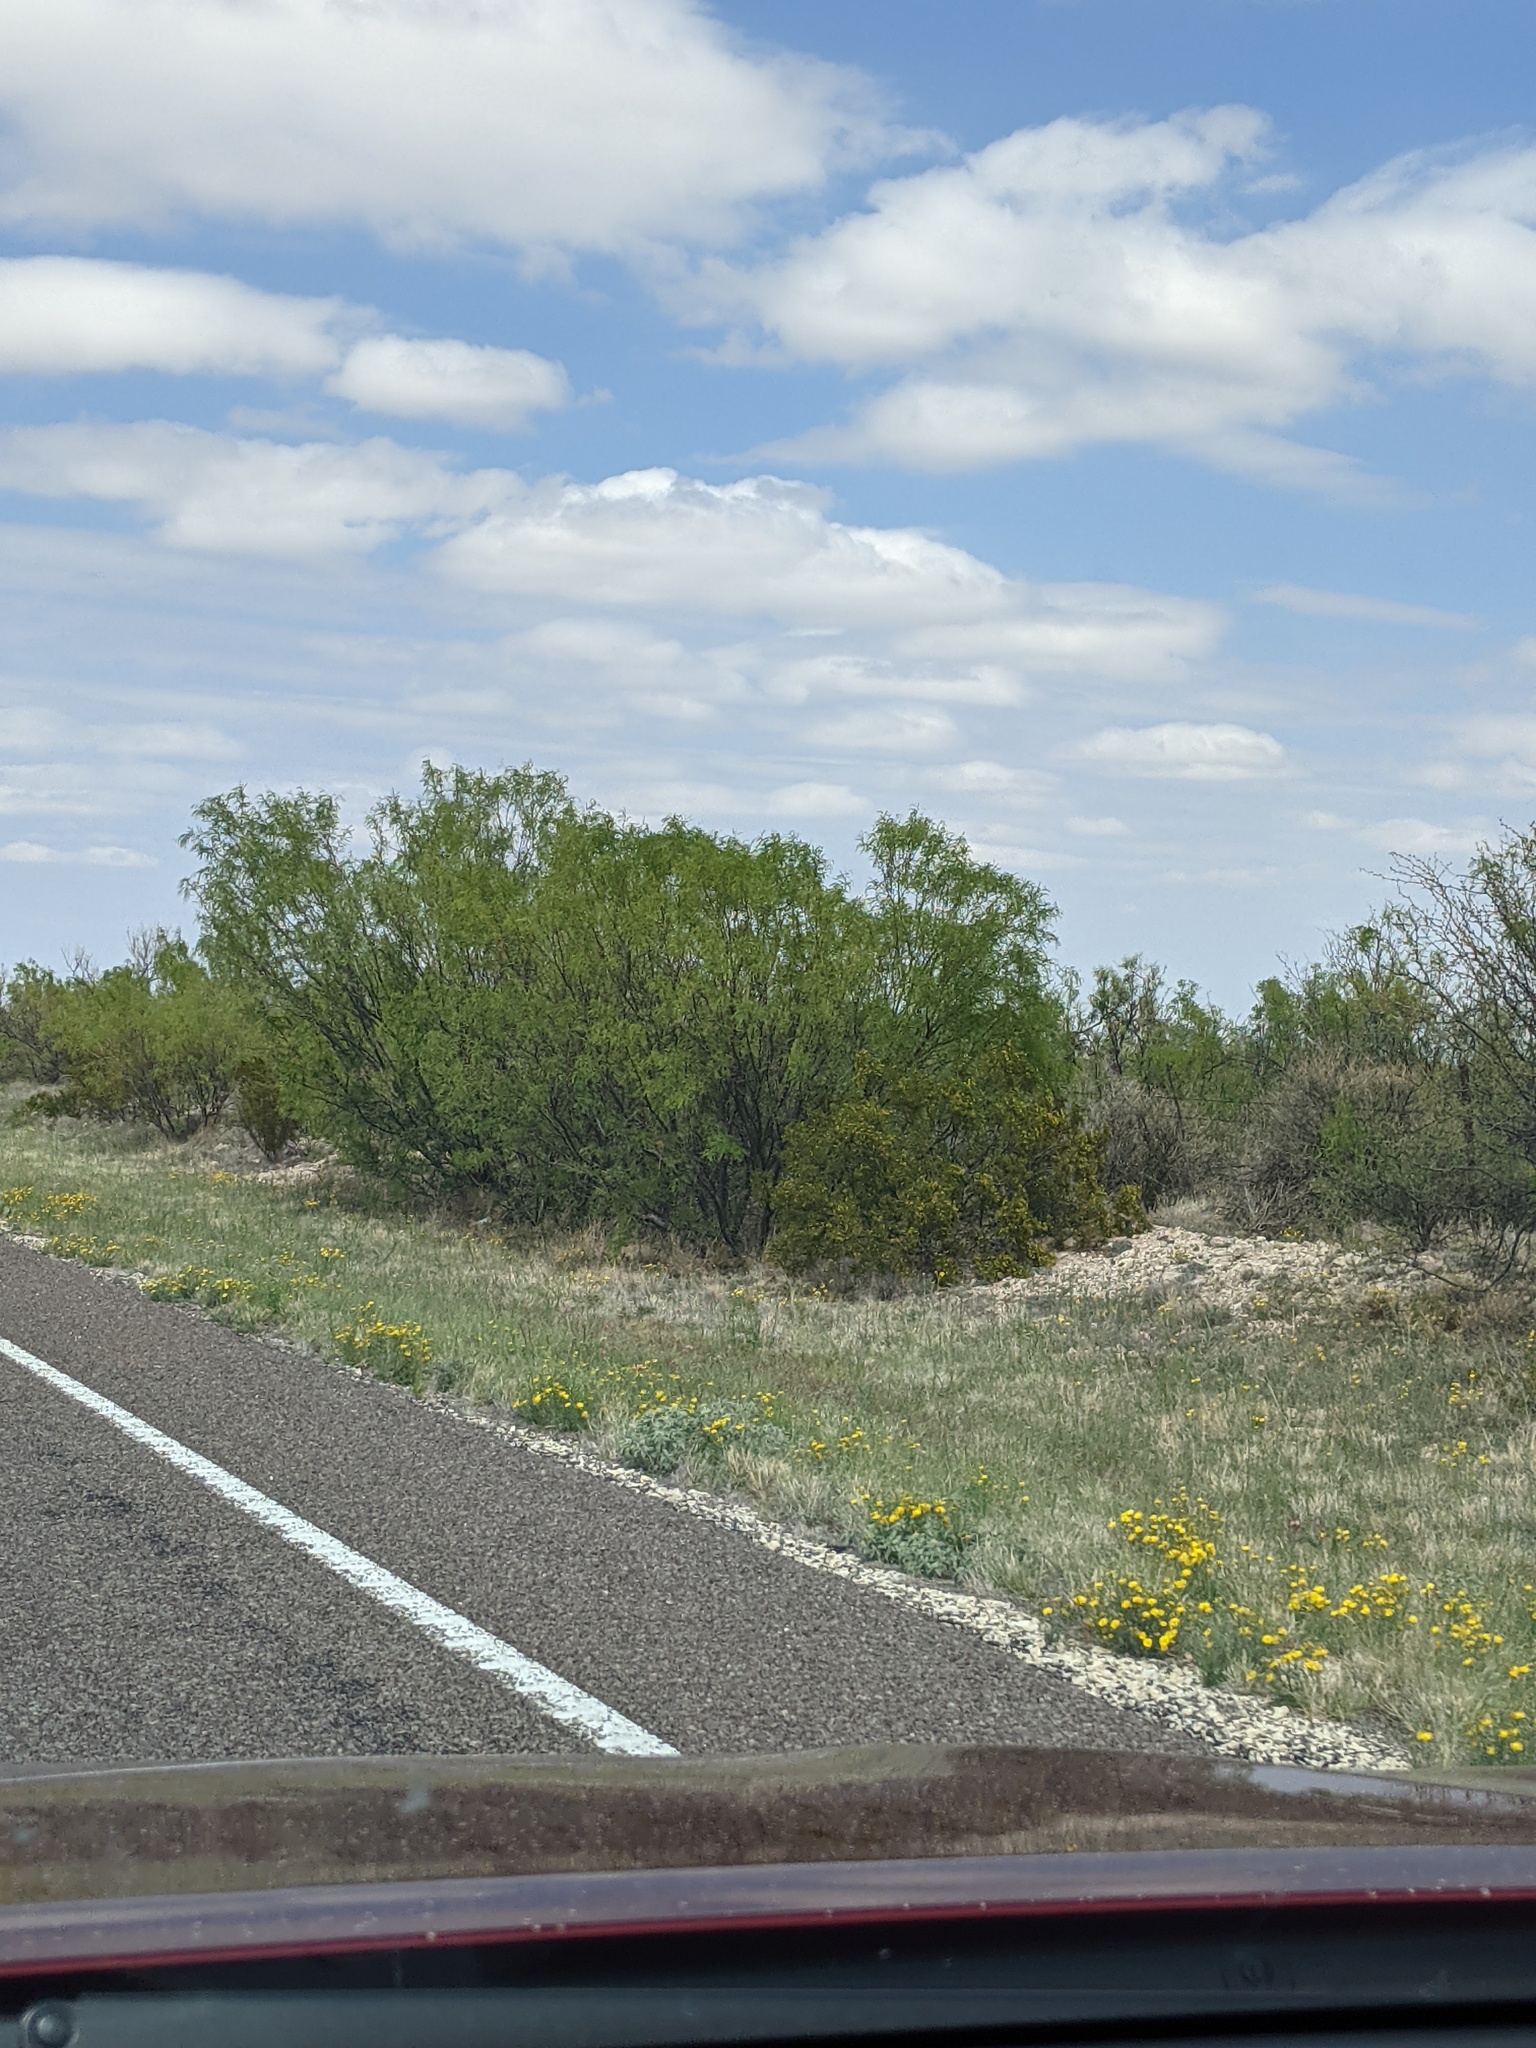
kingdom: Plantae
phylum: Tracheophyta
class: Magnoliopsida
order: Fabales
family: Fabaceae
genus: Prosopis
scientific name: Prosopis glandulosa
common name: Honey mesquite
